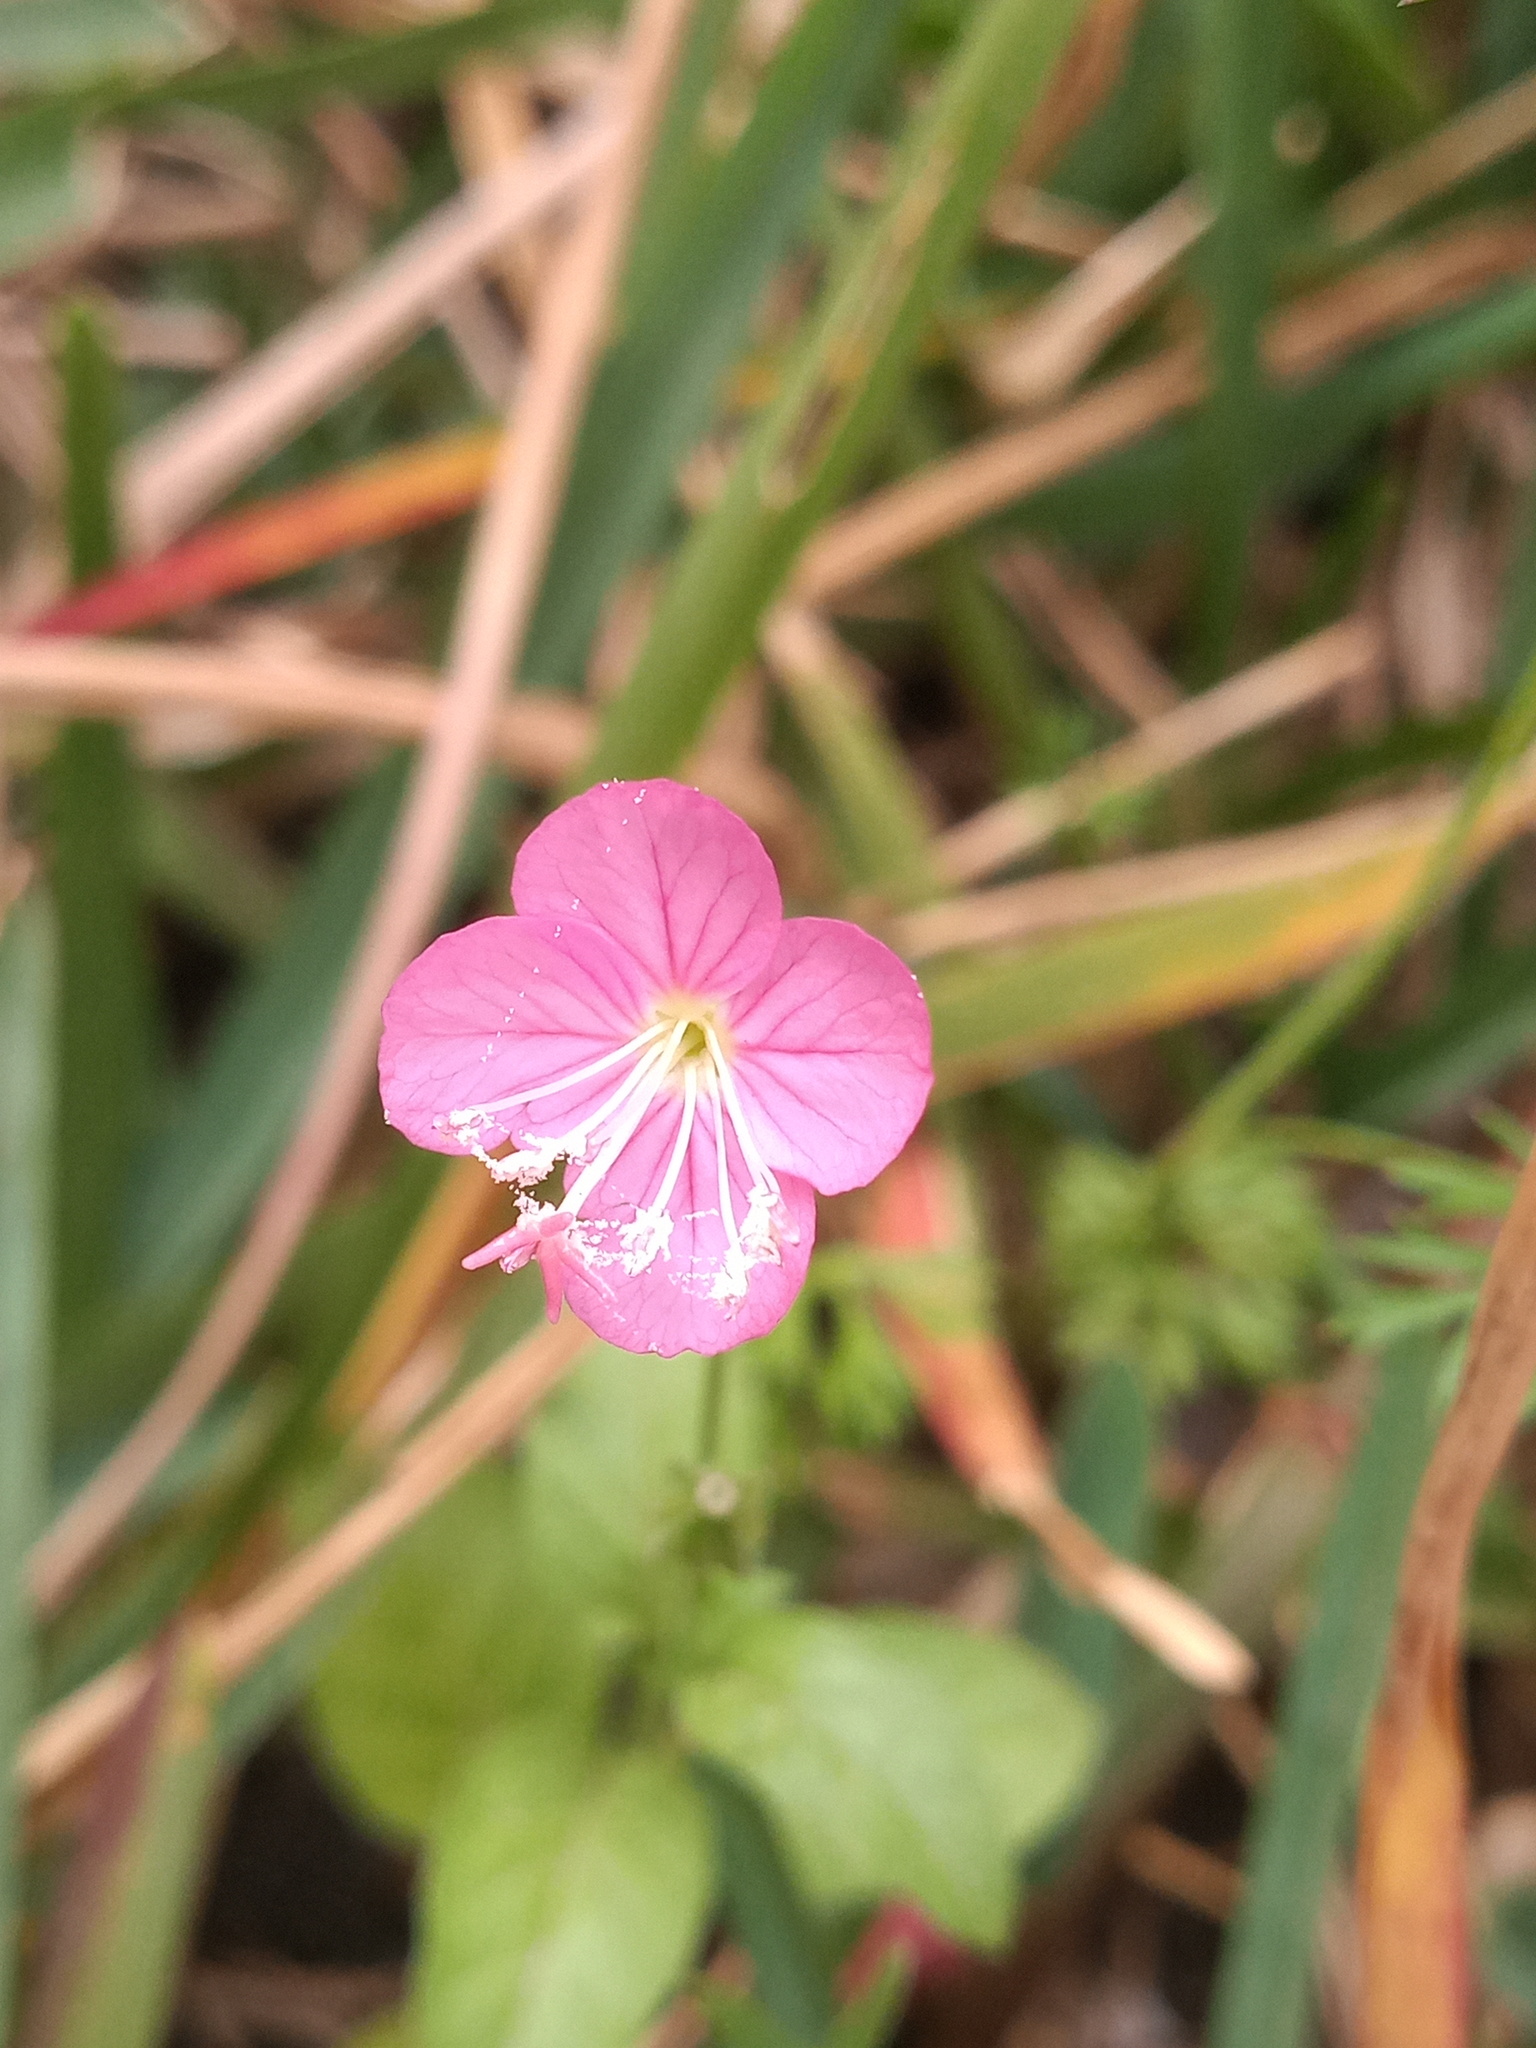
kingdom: Plantae
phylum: Tracheophyta
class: Magnoliopsida
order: Myrtales
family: Onagraceae
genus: Oenothera
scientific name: Oenothera rosea
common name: Rosy evening-primrose
